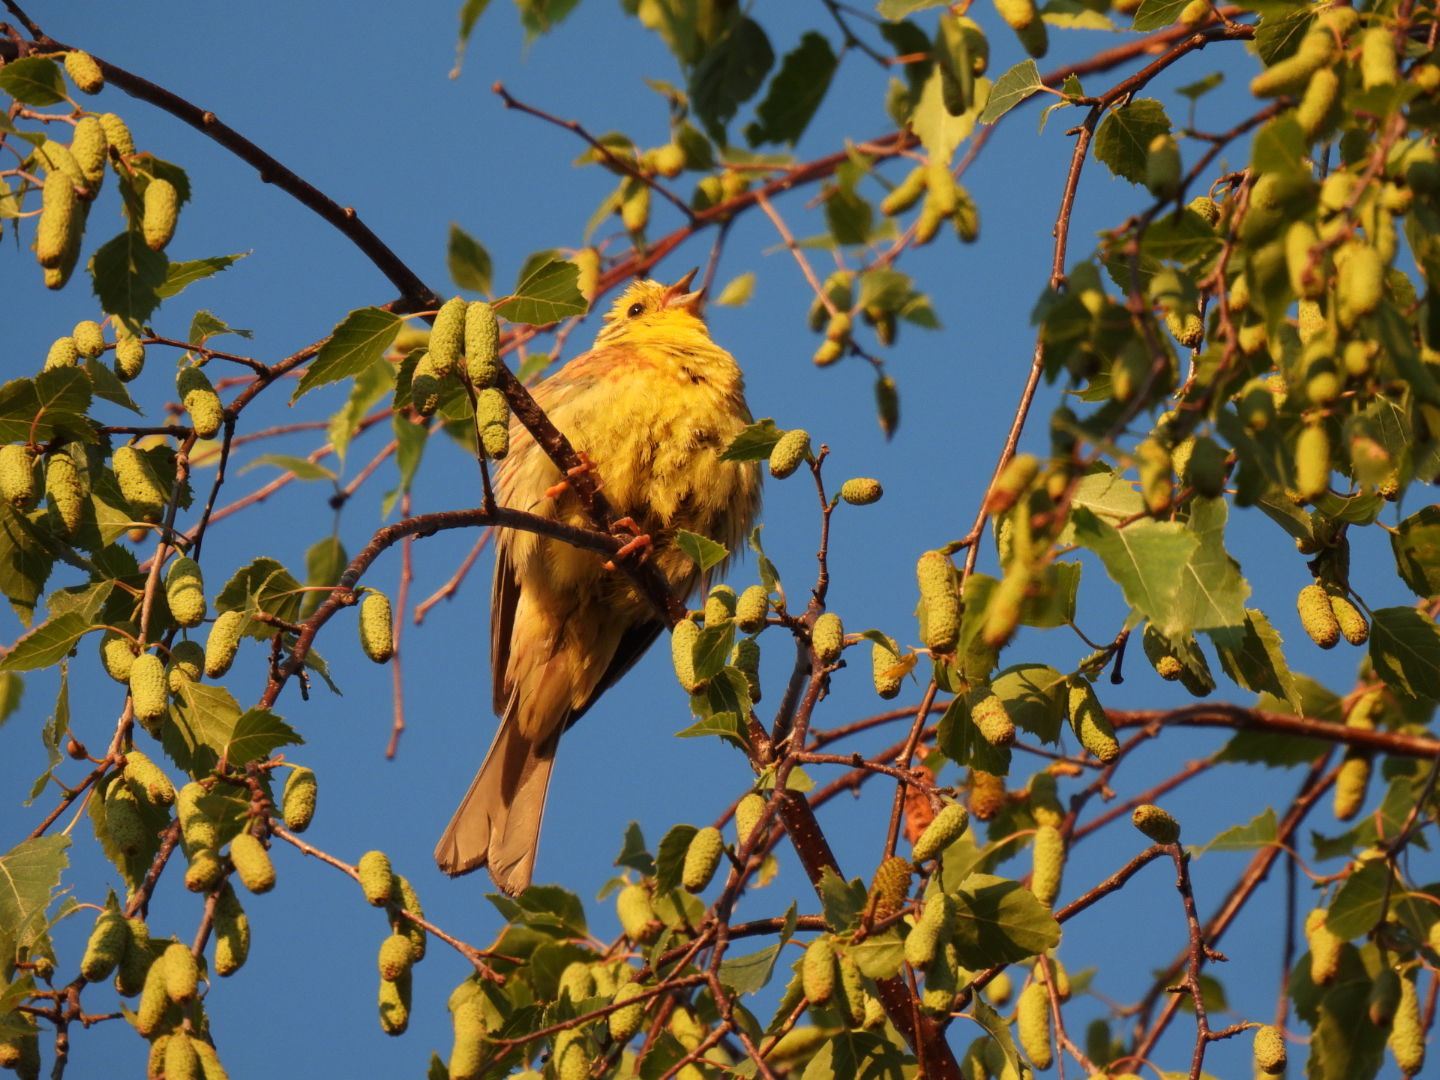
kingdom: Animalia
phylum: Chordata
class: Aves
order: Passeriformes
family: Emberizidae
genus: Emberiza
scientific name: Emberiza citrinella
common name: Yellowhammer
